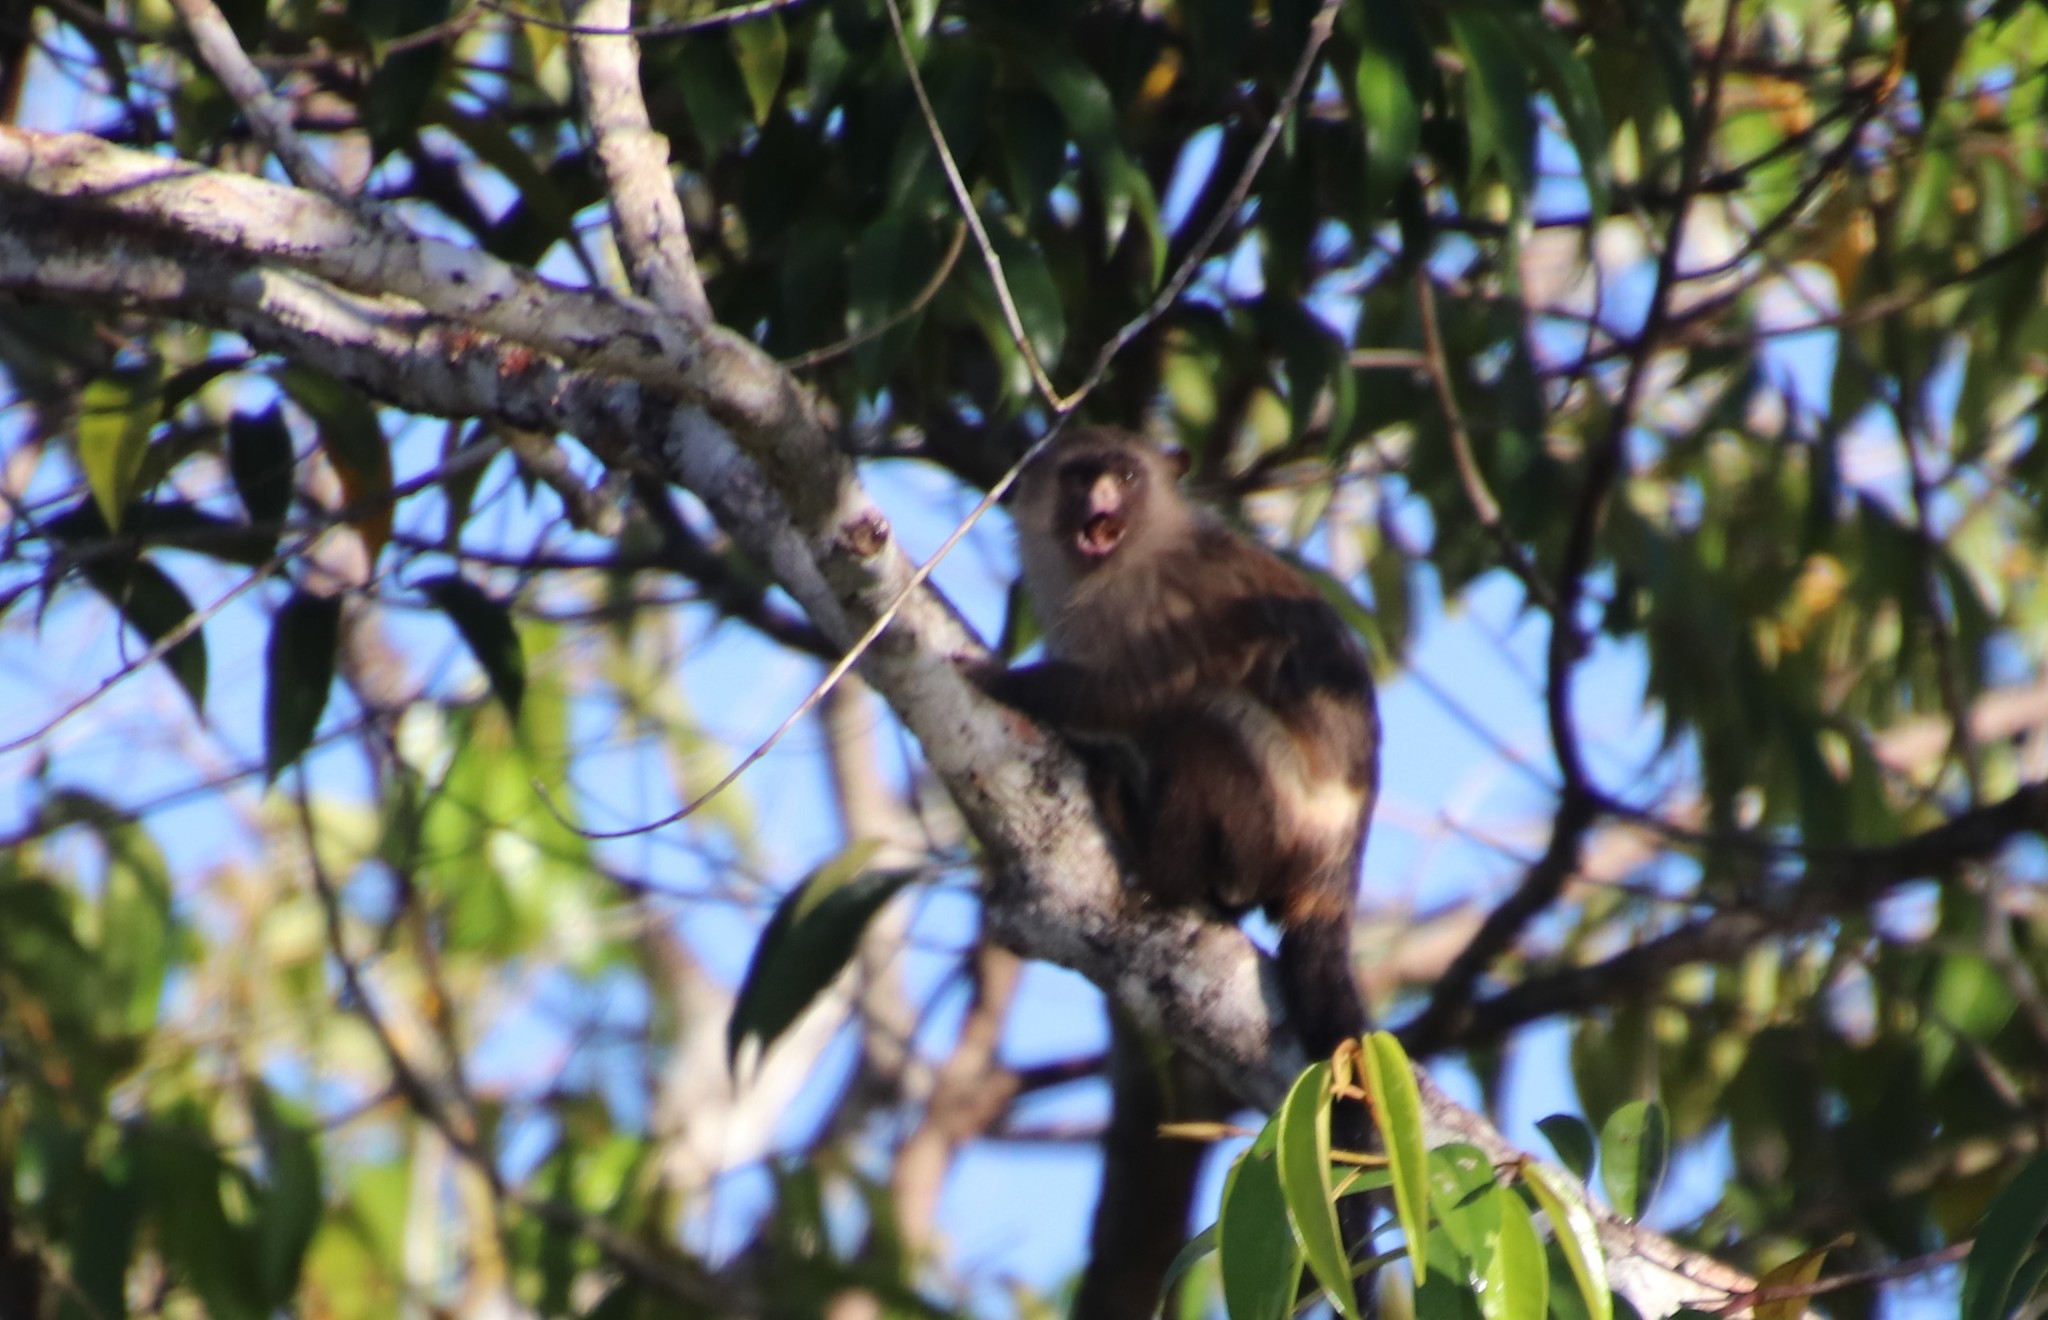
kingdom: Animalia
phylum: Chordata
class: Mammalia
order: Primates
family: Callitrichidae
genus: Mico
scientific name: Mico melanurus
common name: Black-tailed marmoset
